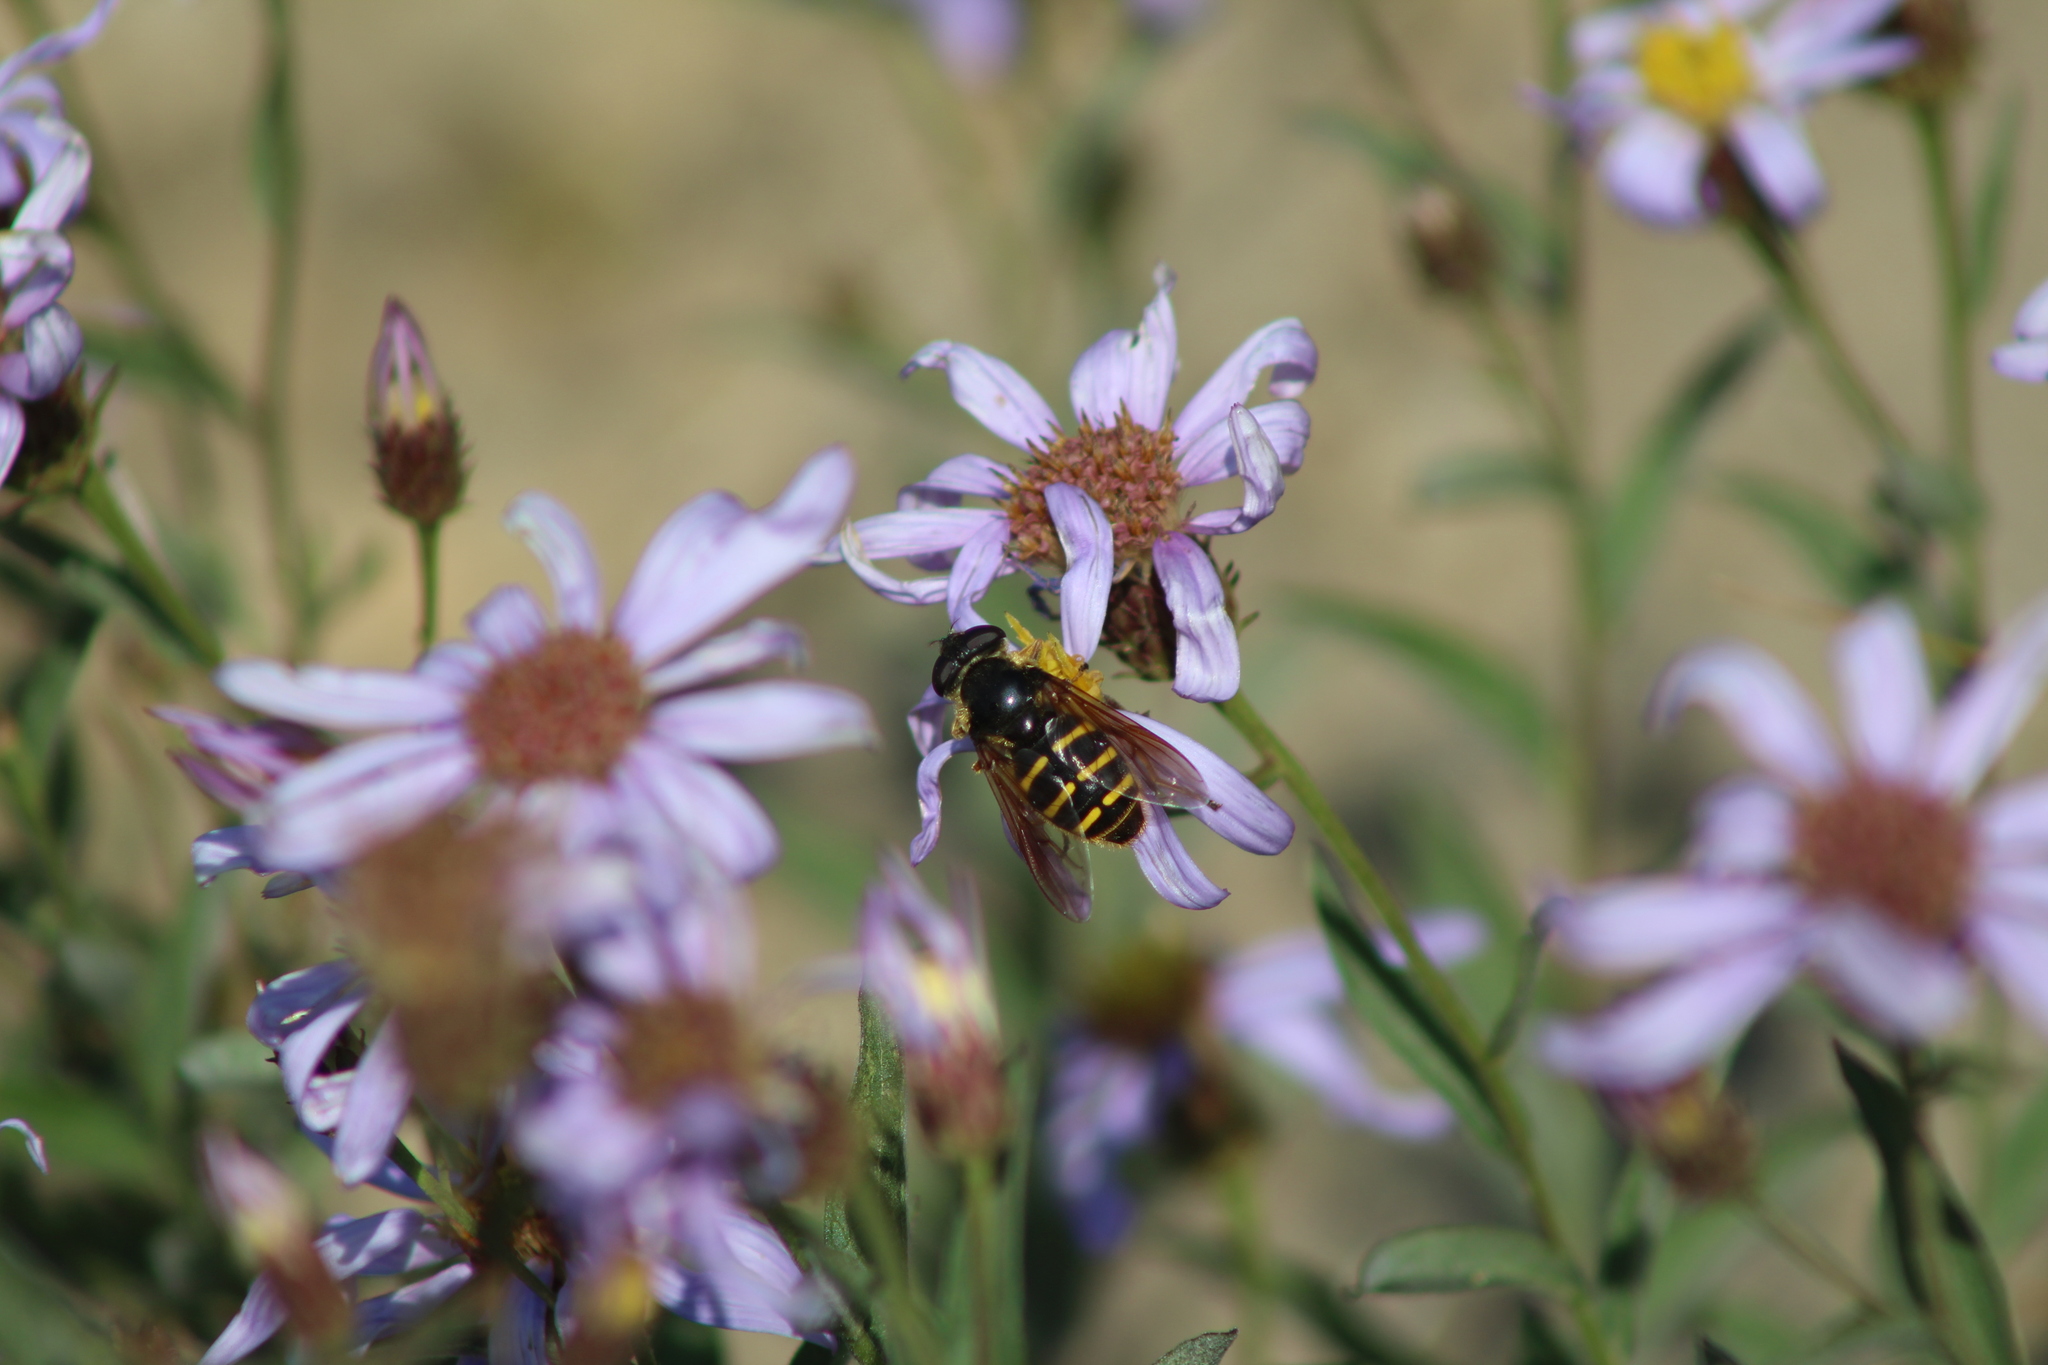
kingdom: Animalia
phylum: Arthropoda
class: Insecta
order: Diptera
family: Syrphidae
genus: Sericomyia
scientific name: Sericomyia chalcopyga
